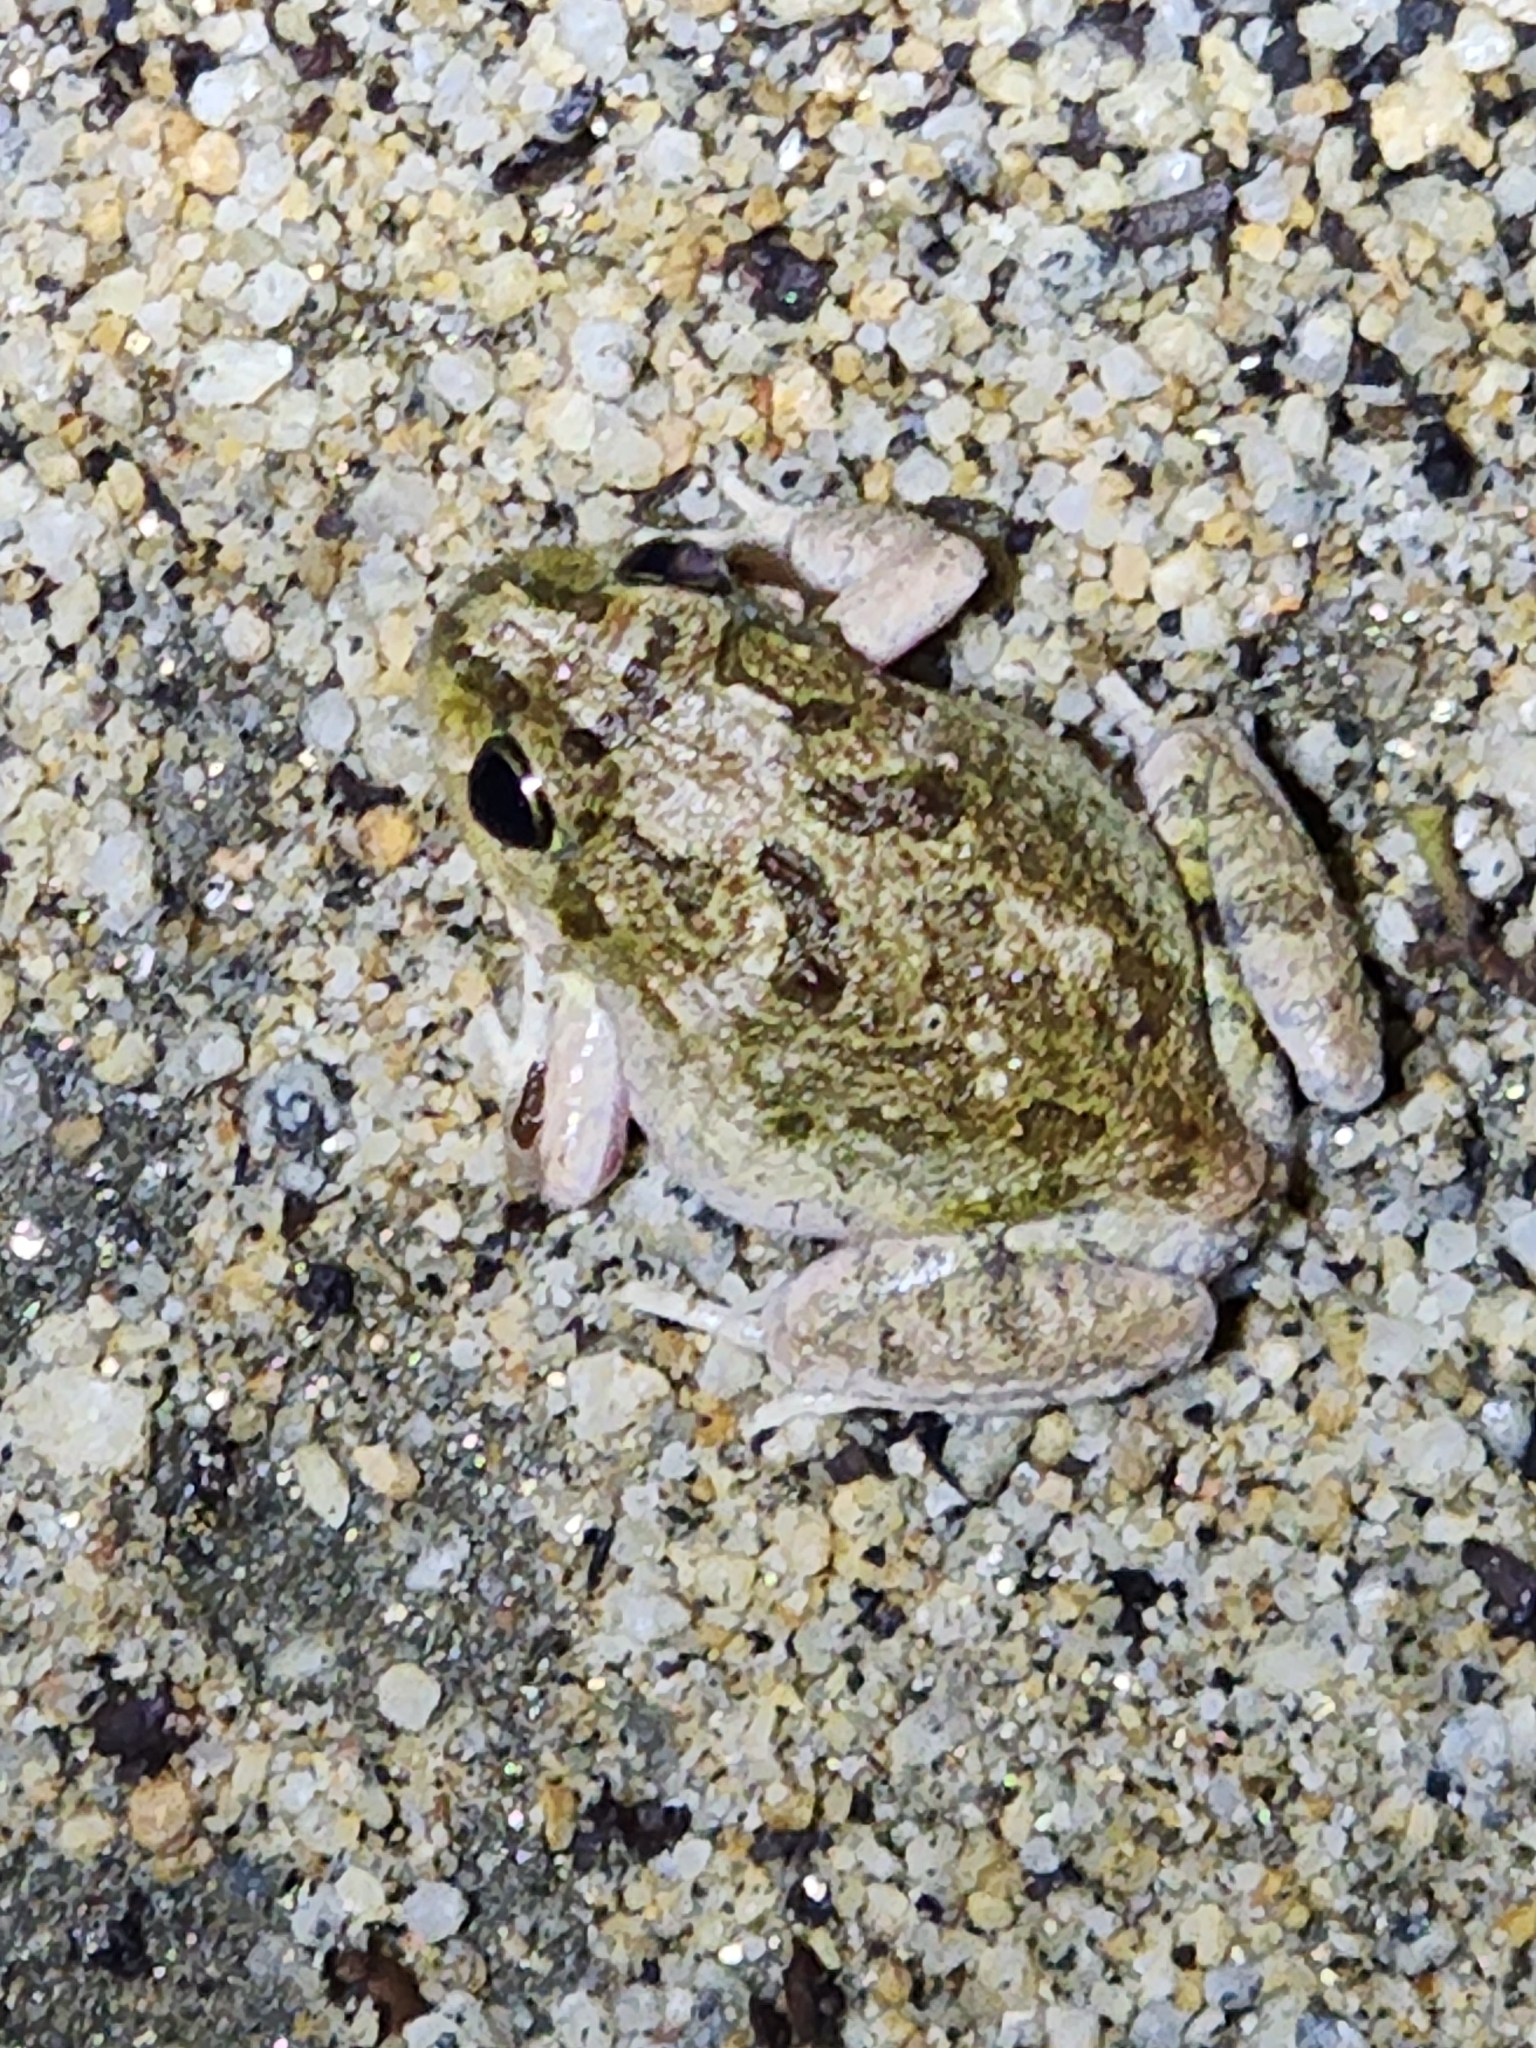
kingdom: Animalia
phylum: Chordata
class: Amphibia
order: Anura
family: Limnodynastidae
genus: Platyplectrum
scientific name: Platyplectrum ornatum
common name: Ornate burrowing frog
